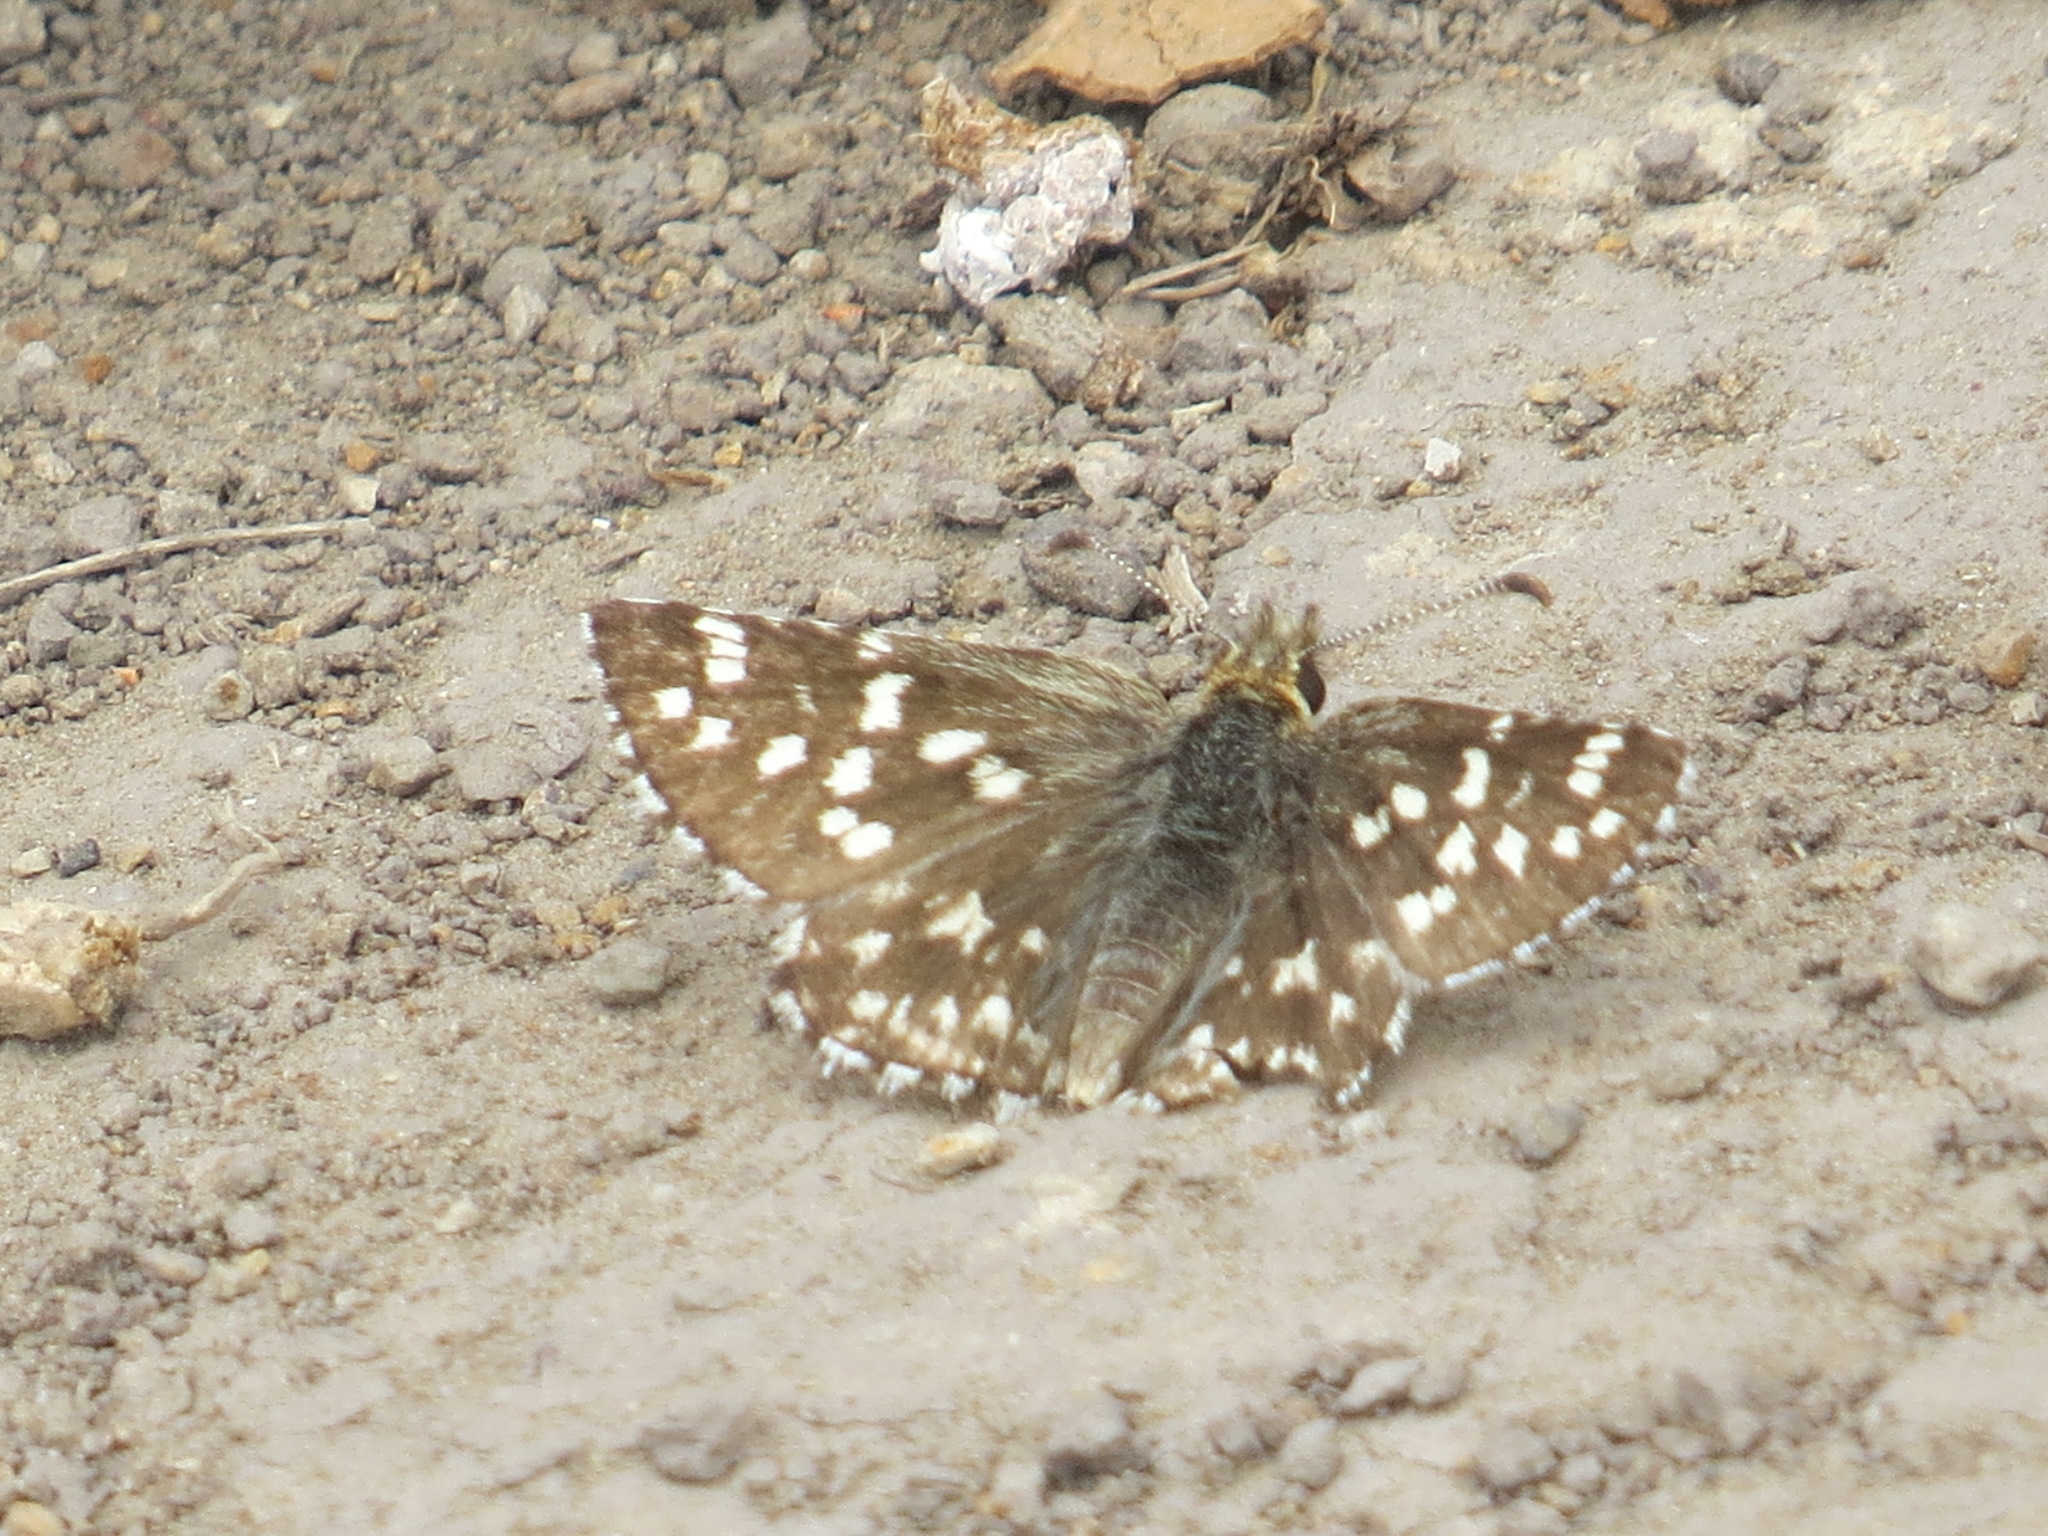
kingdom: Animalia
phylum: Arthropoda
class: Insecta
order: Lepidoptera
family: Hesperiidae
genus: Pyrgus
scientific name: Pyrgus ruralis
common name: Two-banded checkered-skipper
